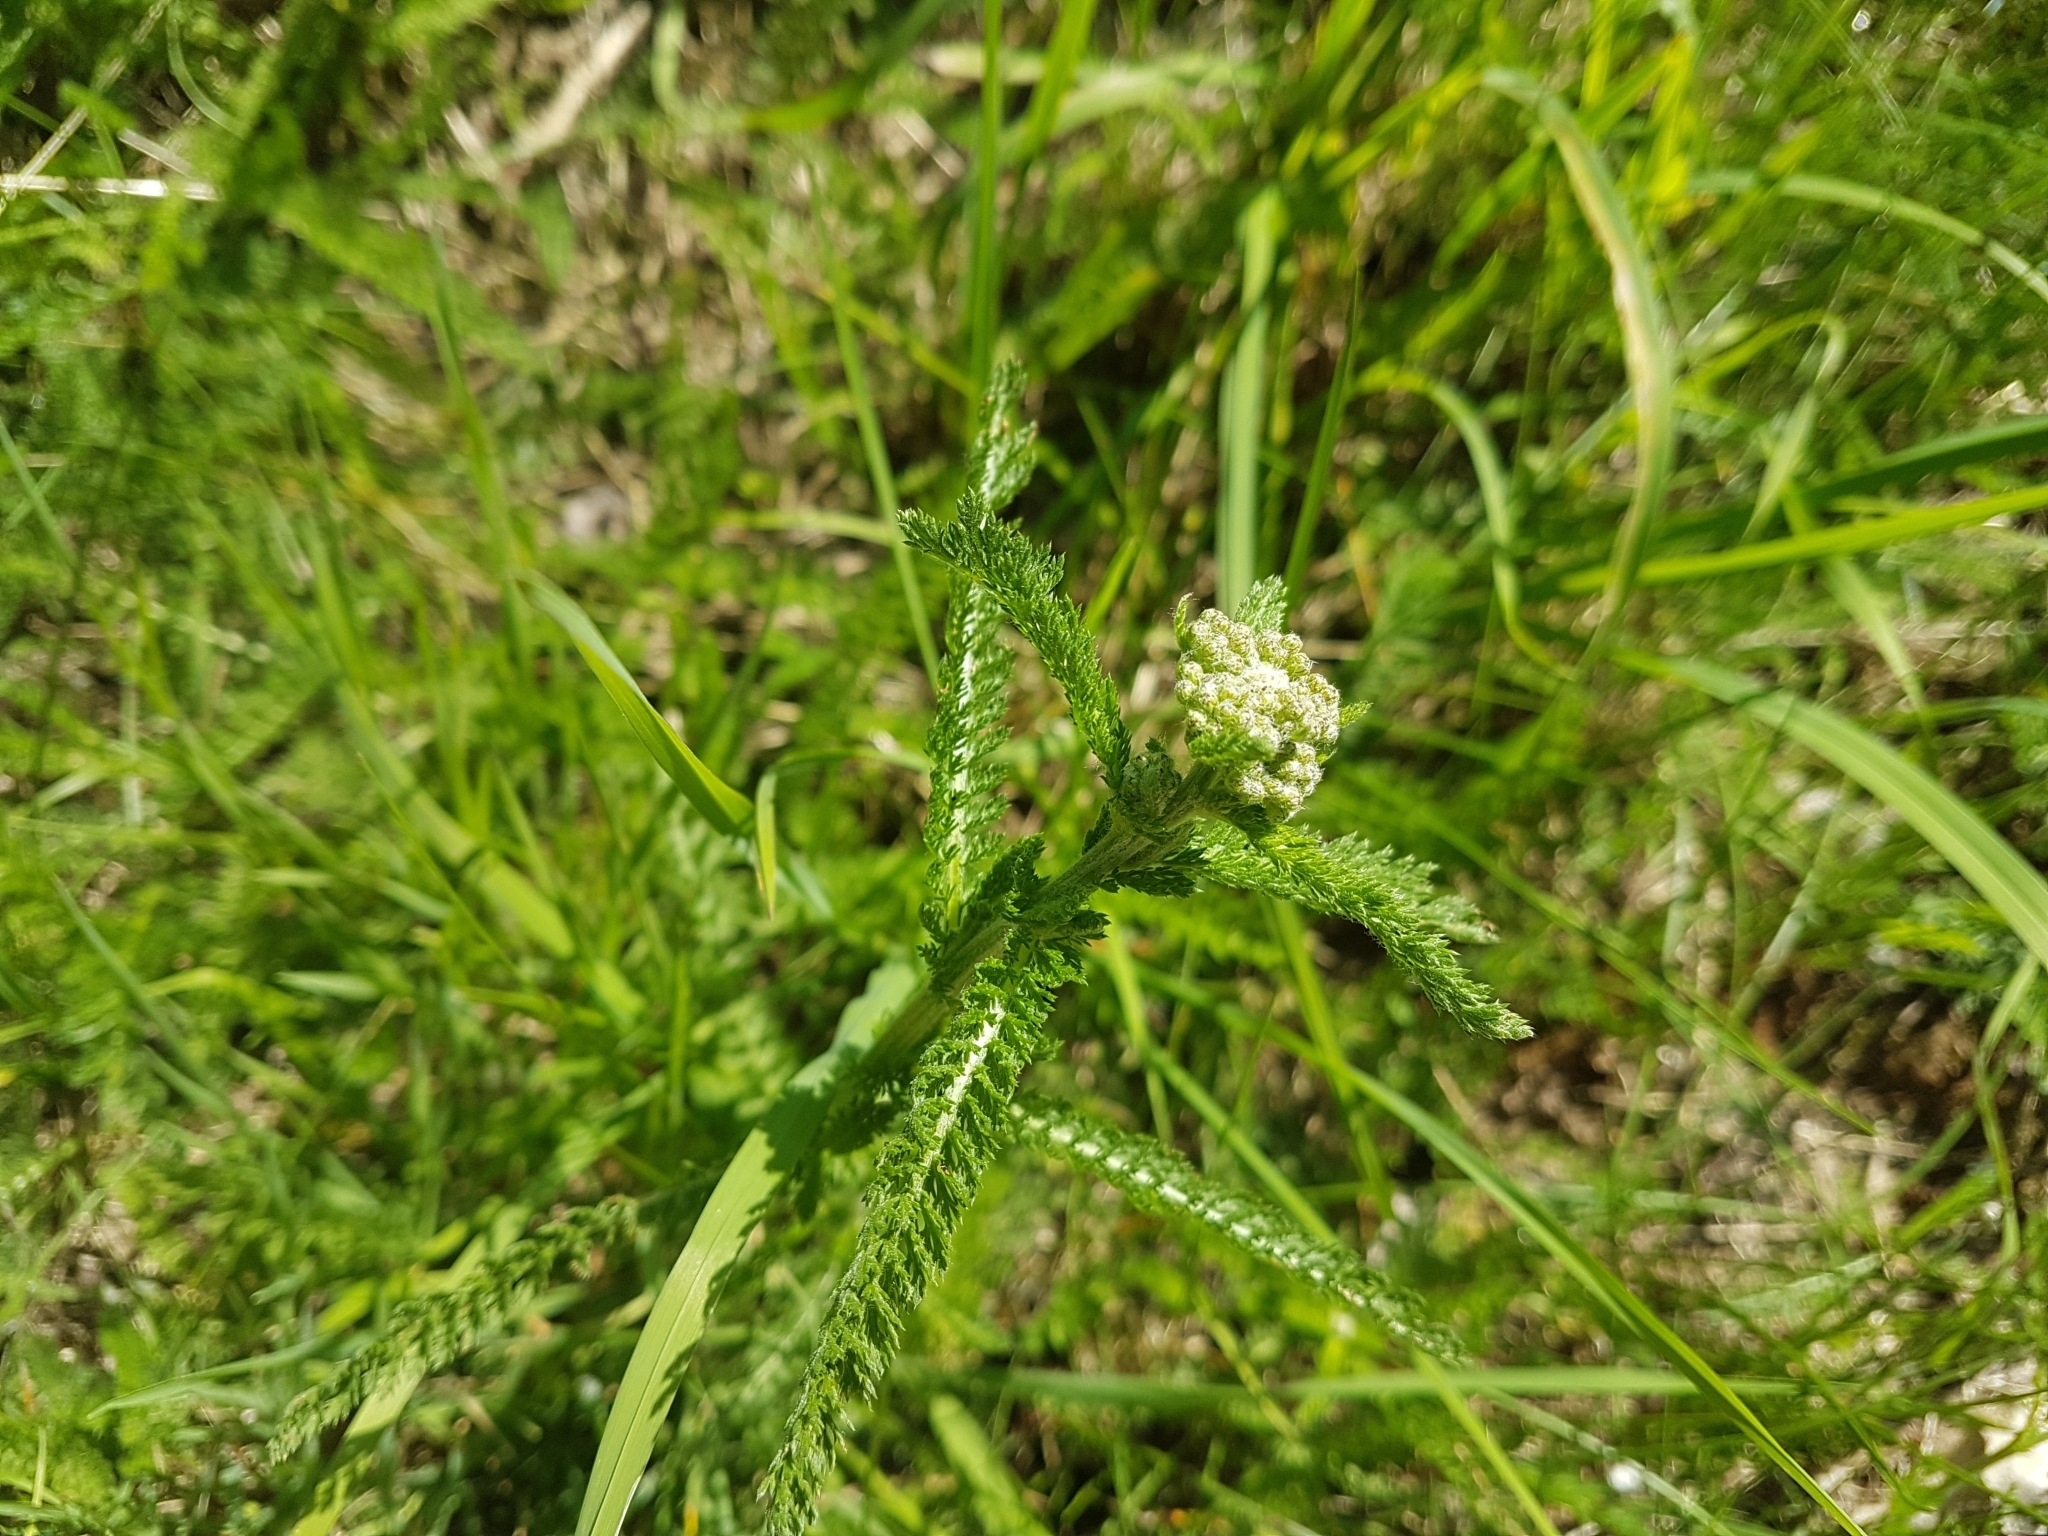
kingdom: Plantae
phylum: Tracheophyta
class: Magnoliopsida
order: Asterales
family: Asteraceae
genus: Achillea
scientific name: Achillea millefolium
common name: Yarrow
